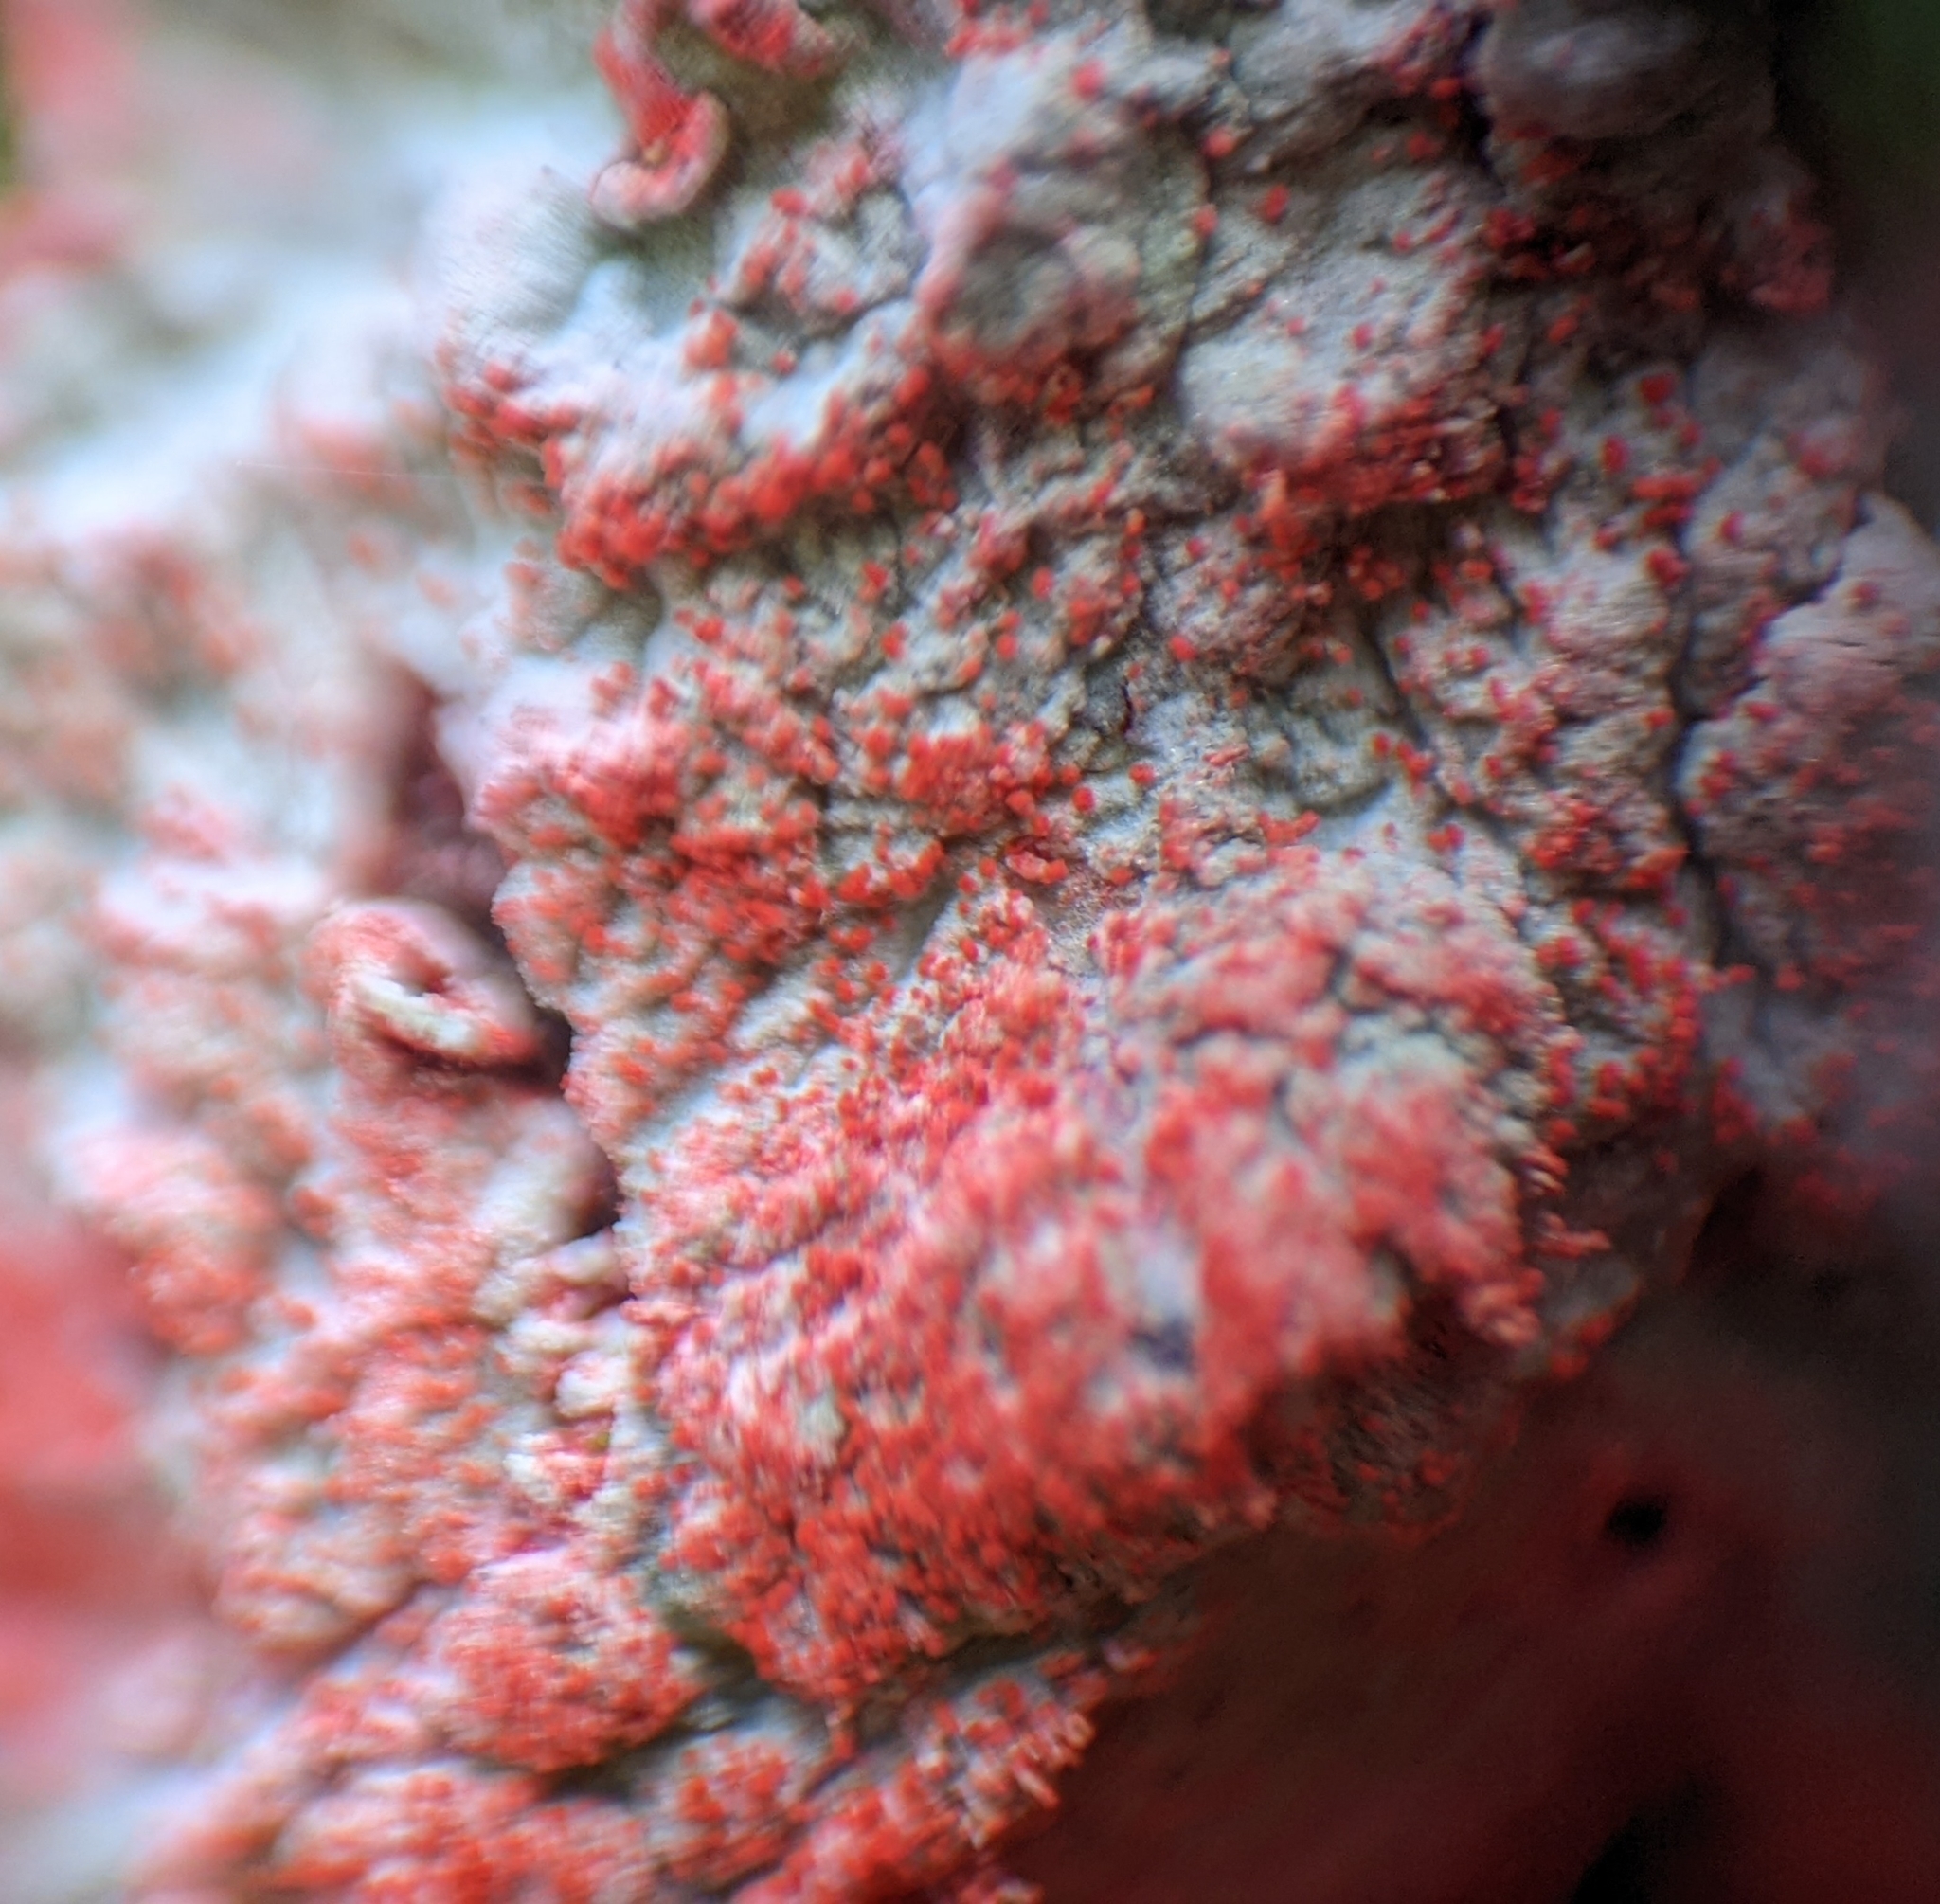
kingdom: Fungi
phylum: Ascomycota
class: Arthoniomycetes
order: Arthoniales
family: Arthoniaceae
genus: Herpothallon
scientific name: Herpothallon rubrocinctum
